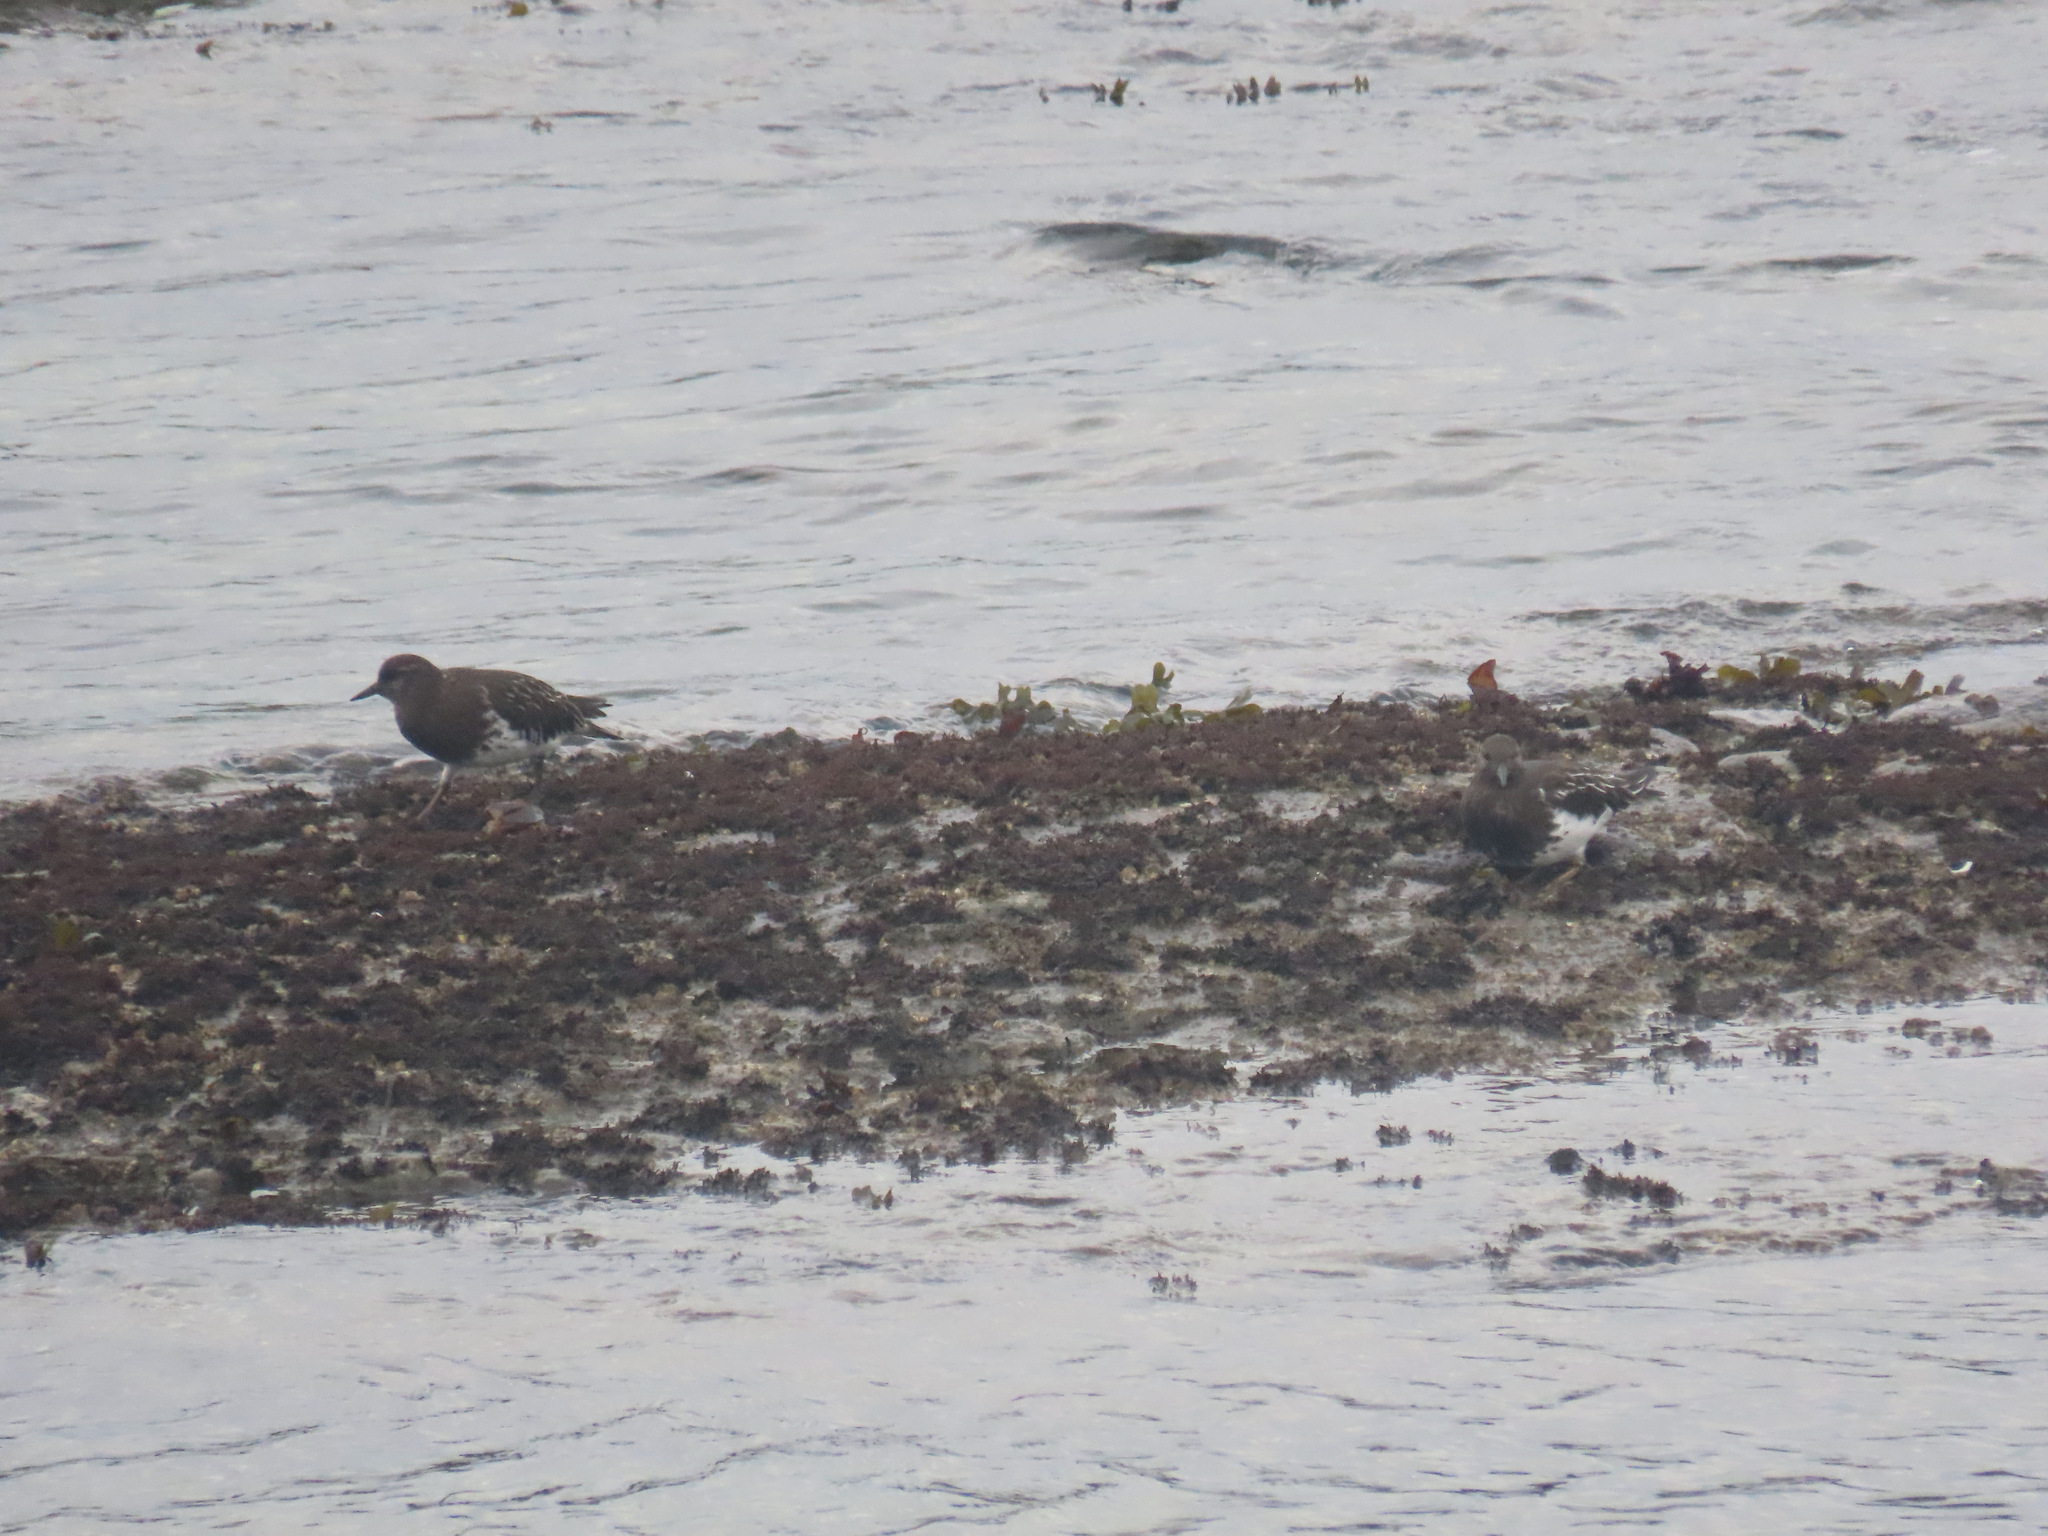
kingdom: Animalia
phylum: Chordata
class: Aves
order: Charadriiformes
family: Scolopacidae
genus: Arenaria
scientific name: Arenaria melanocephala
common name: Black turnstone
